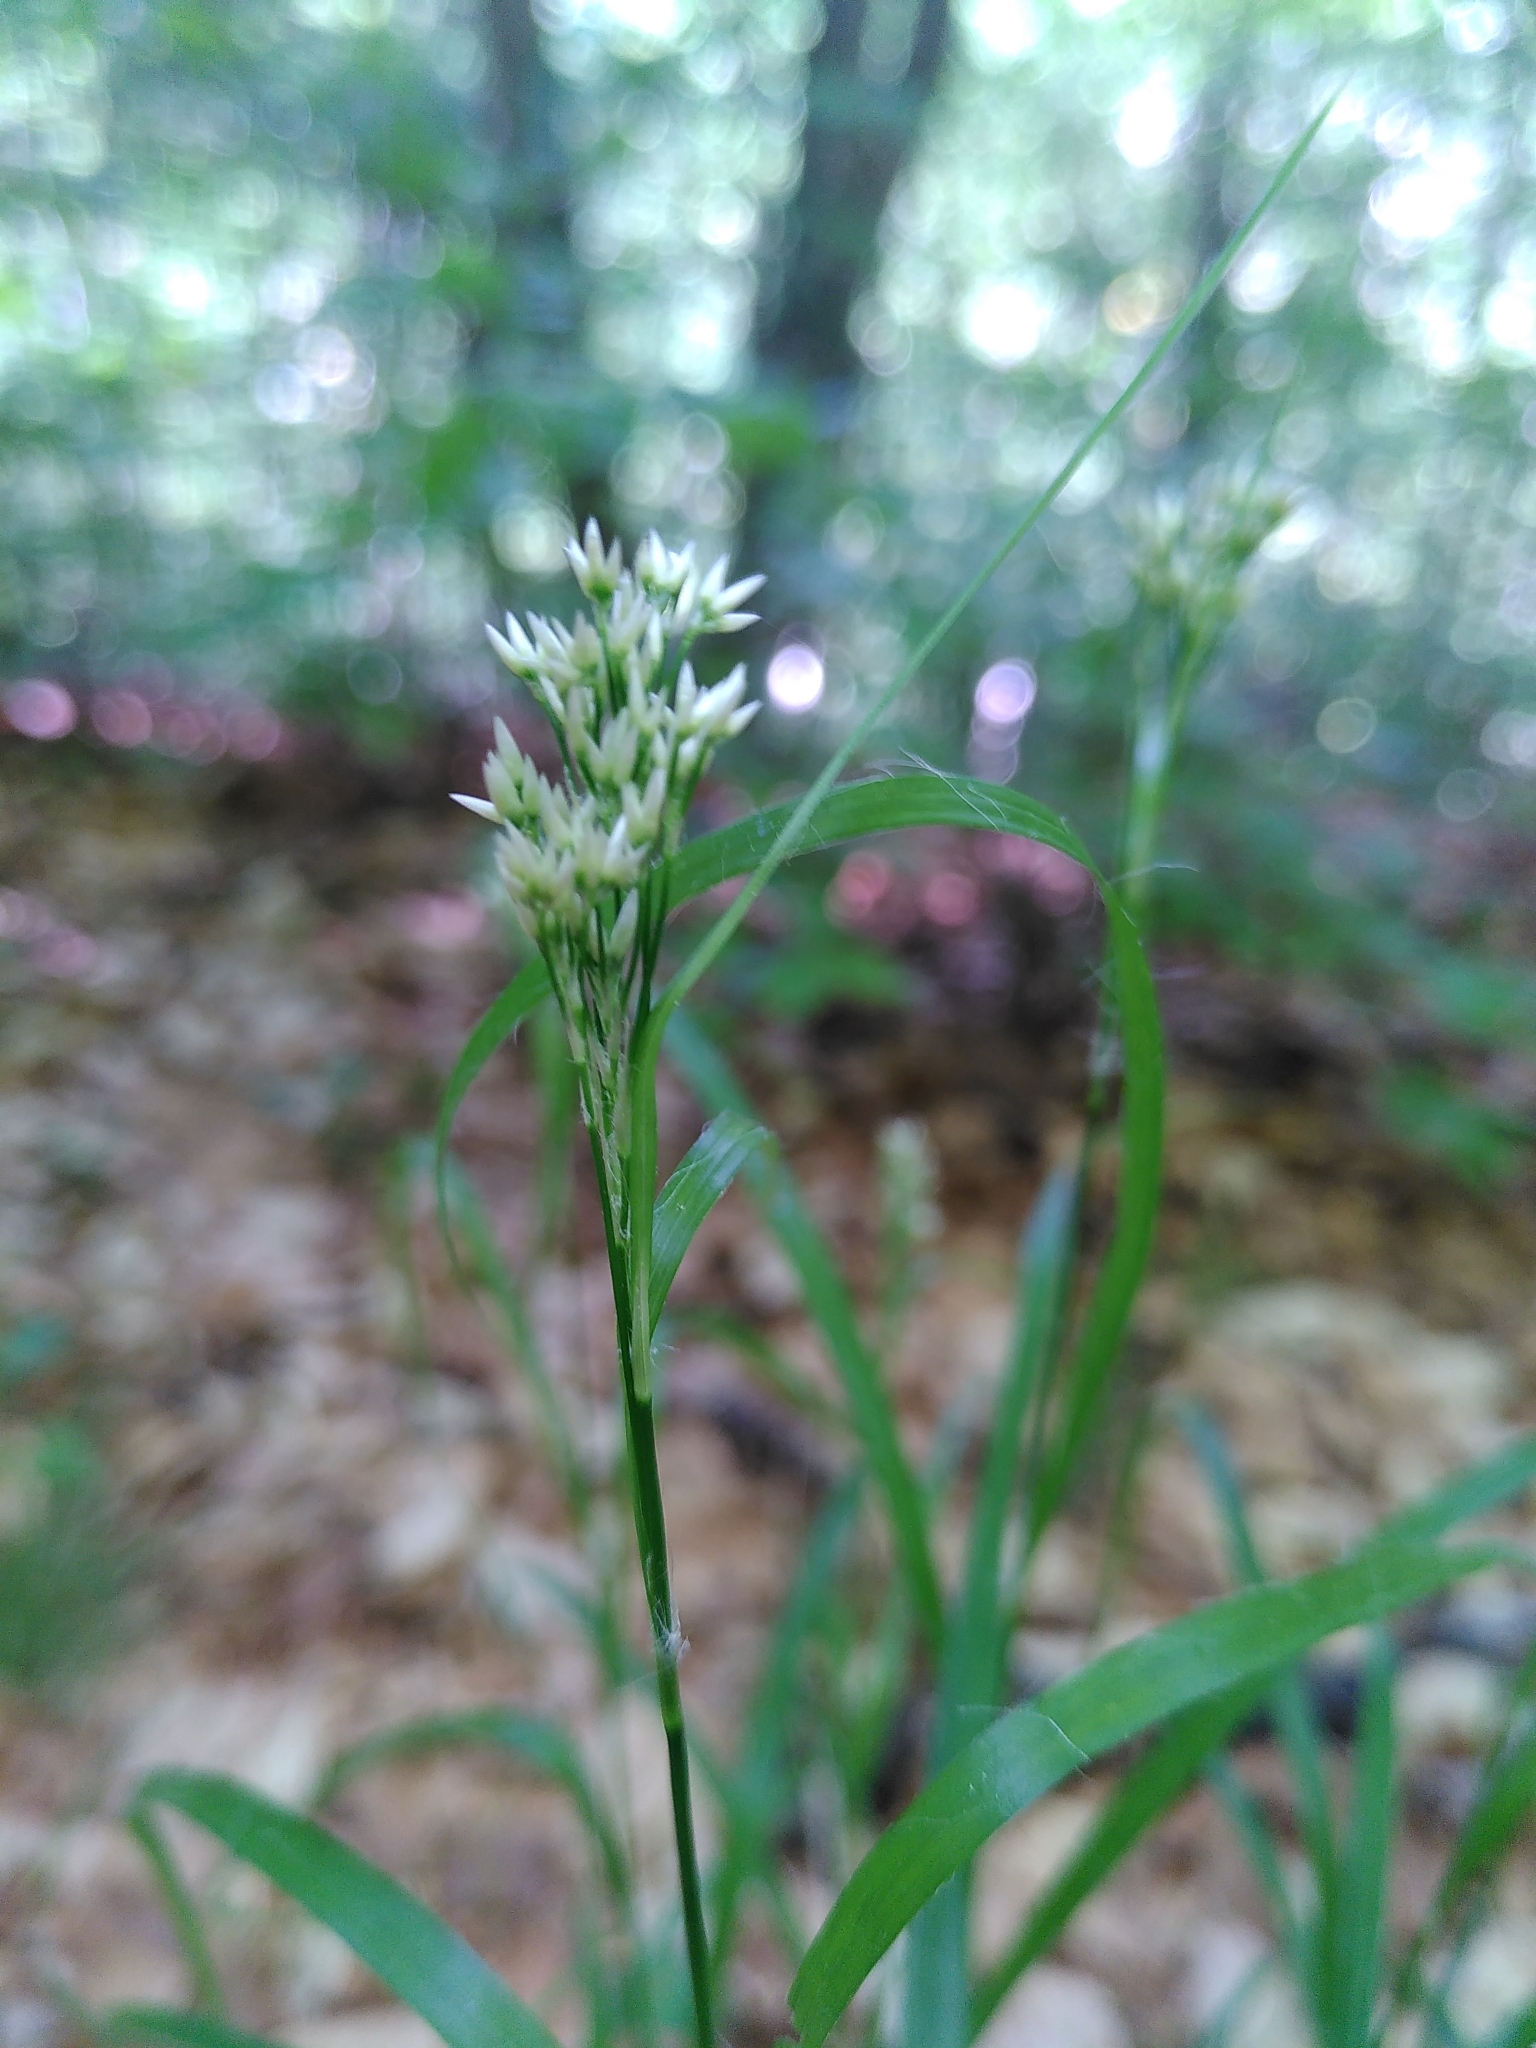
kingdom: Plantae
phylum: Tracheophyta
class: Liliopsida
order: Poales
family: Juncaceae
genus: Luzula
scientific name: Luzula nivea
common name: Snow-white wood-rush
